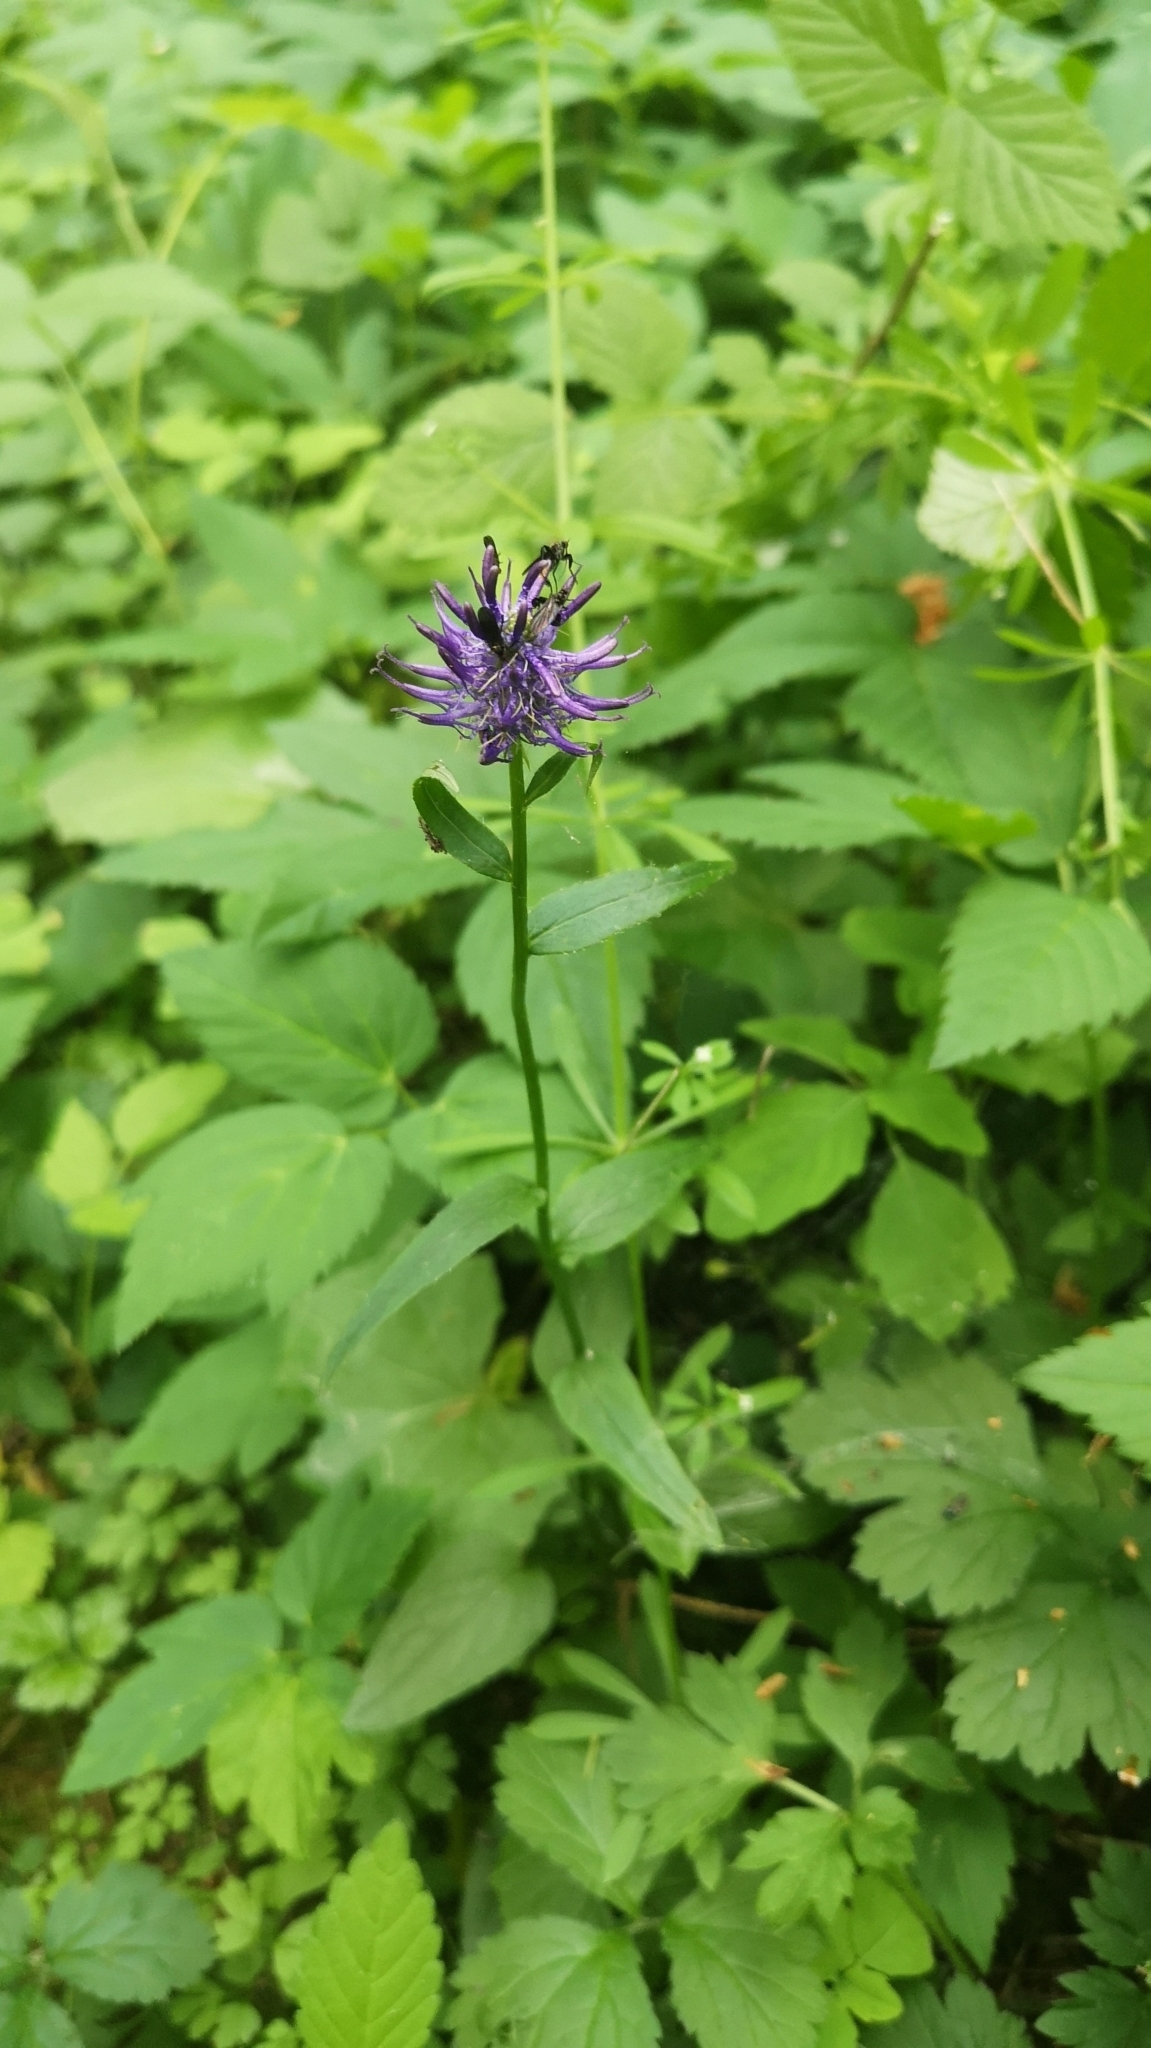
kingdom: Plantae
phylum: Tracheophyta
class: Magnoliopsida
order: Asterales
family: Campanulaceae
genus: Phyteuma
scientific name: Phyteuma nigrum
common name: Black rampion
